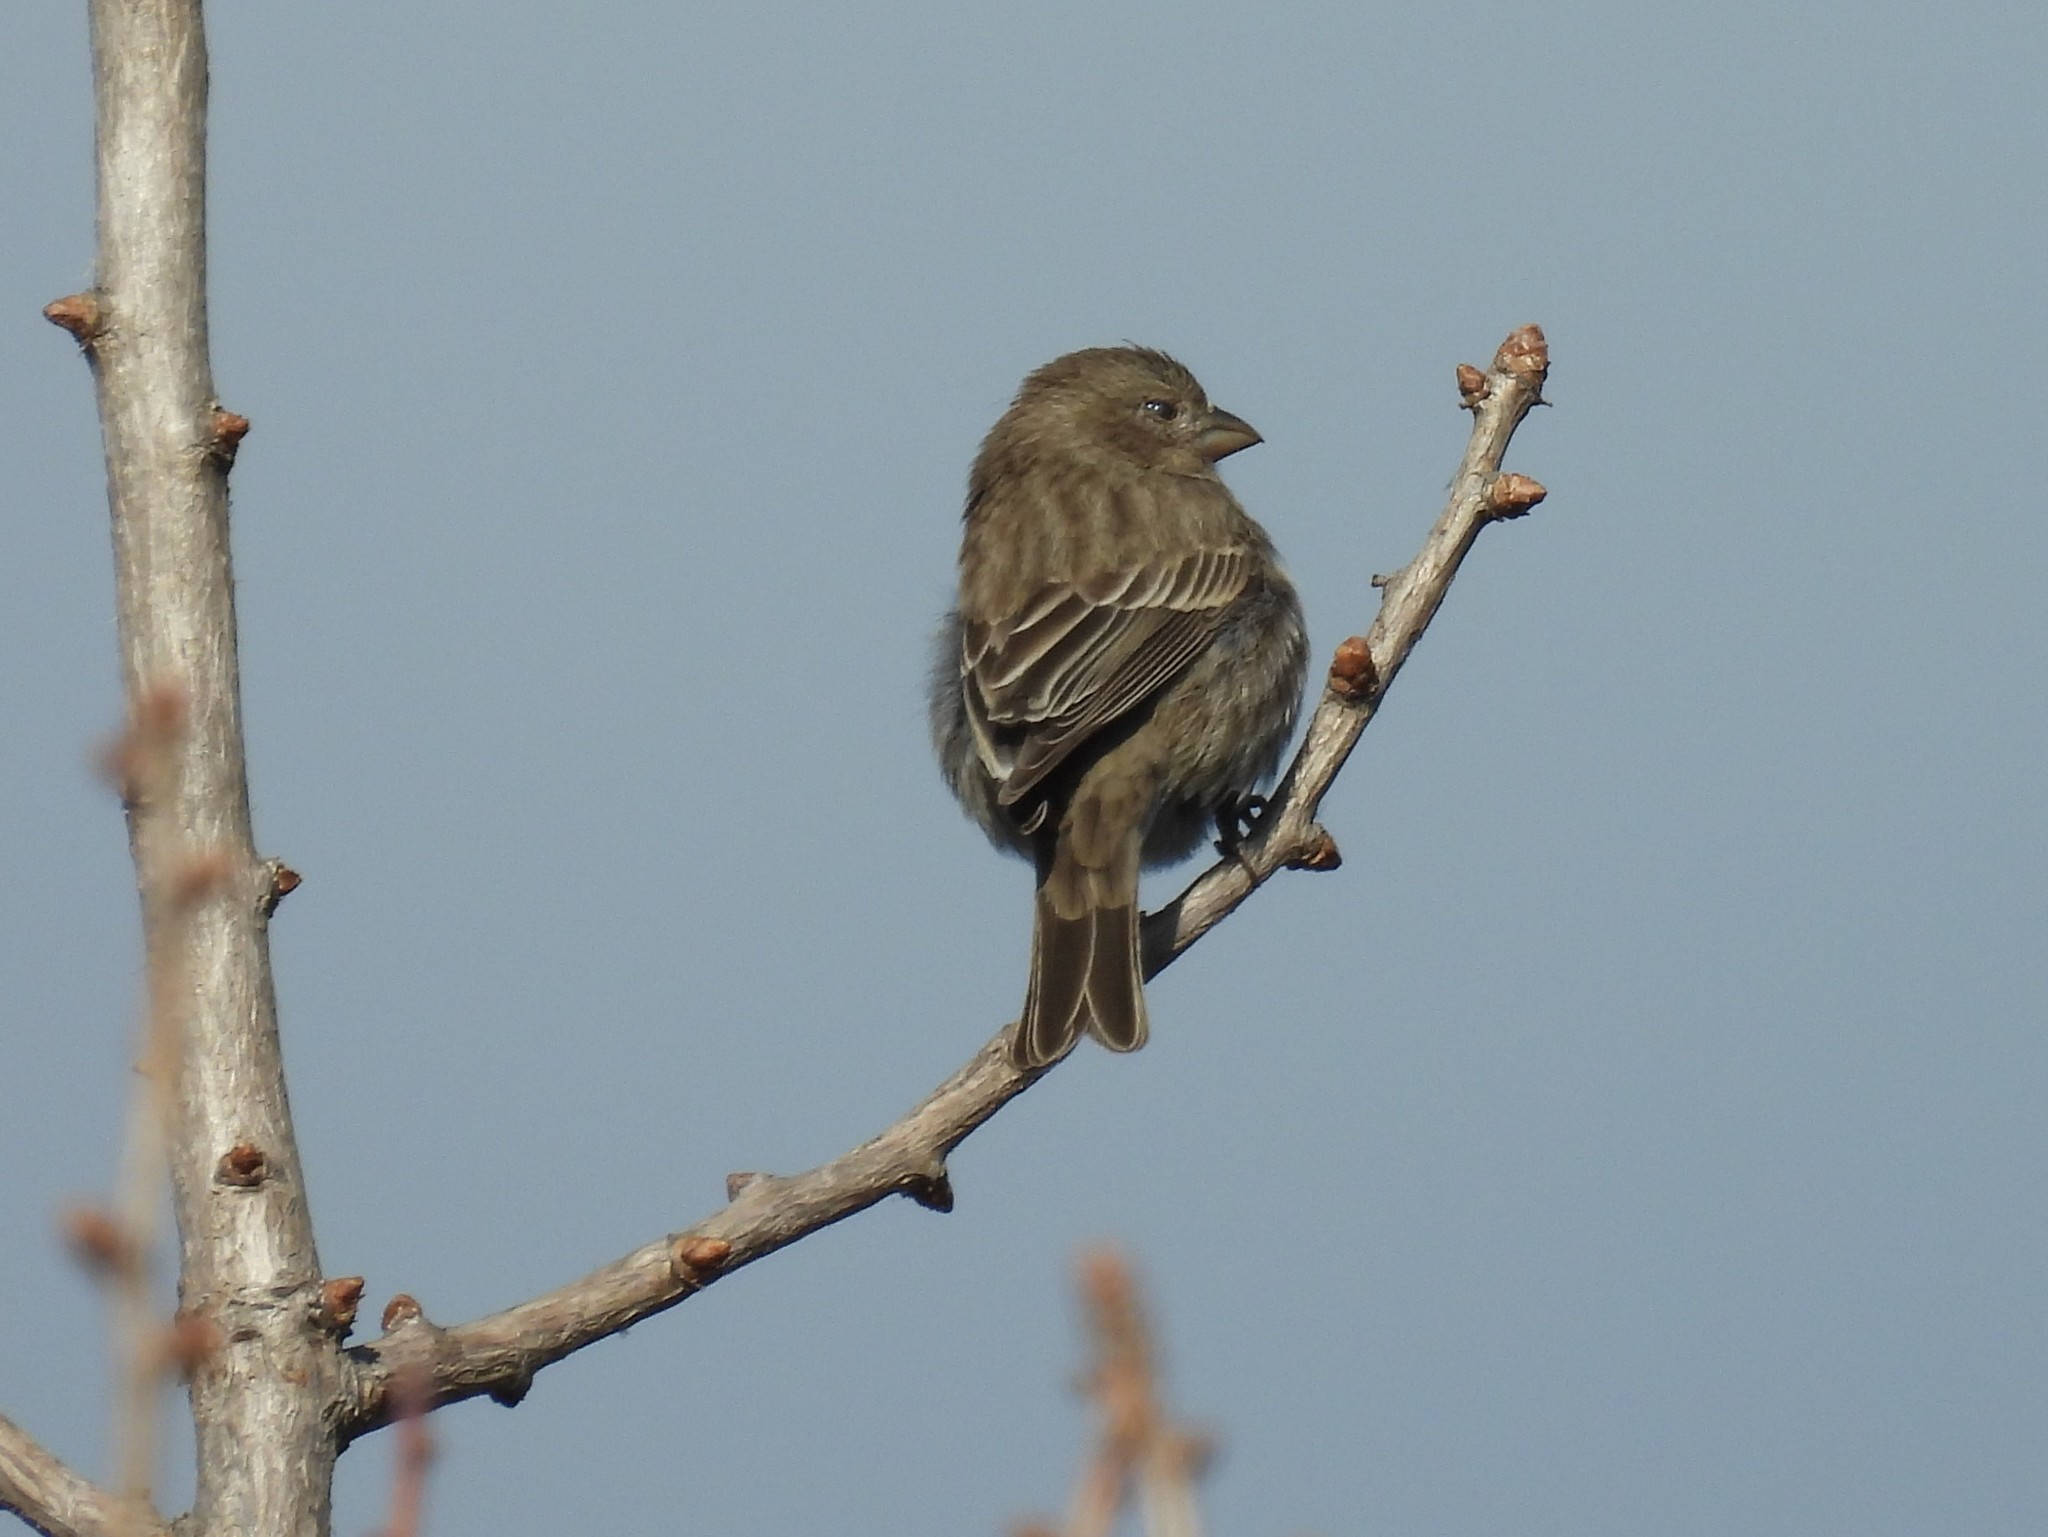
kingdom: Animalia
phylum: Chordata
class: Aves
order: Passeriformes
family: Fringillidae
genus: Haemorhous
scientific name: Haemorhous mexicanus
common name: House finch
